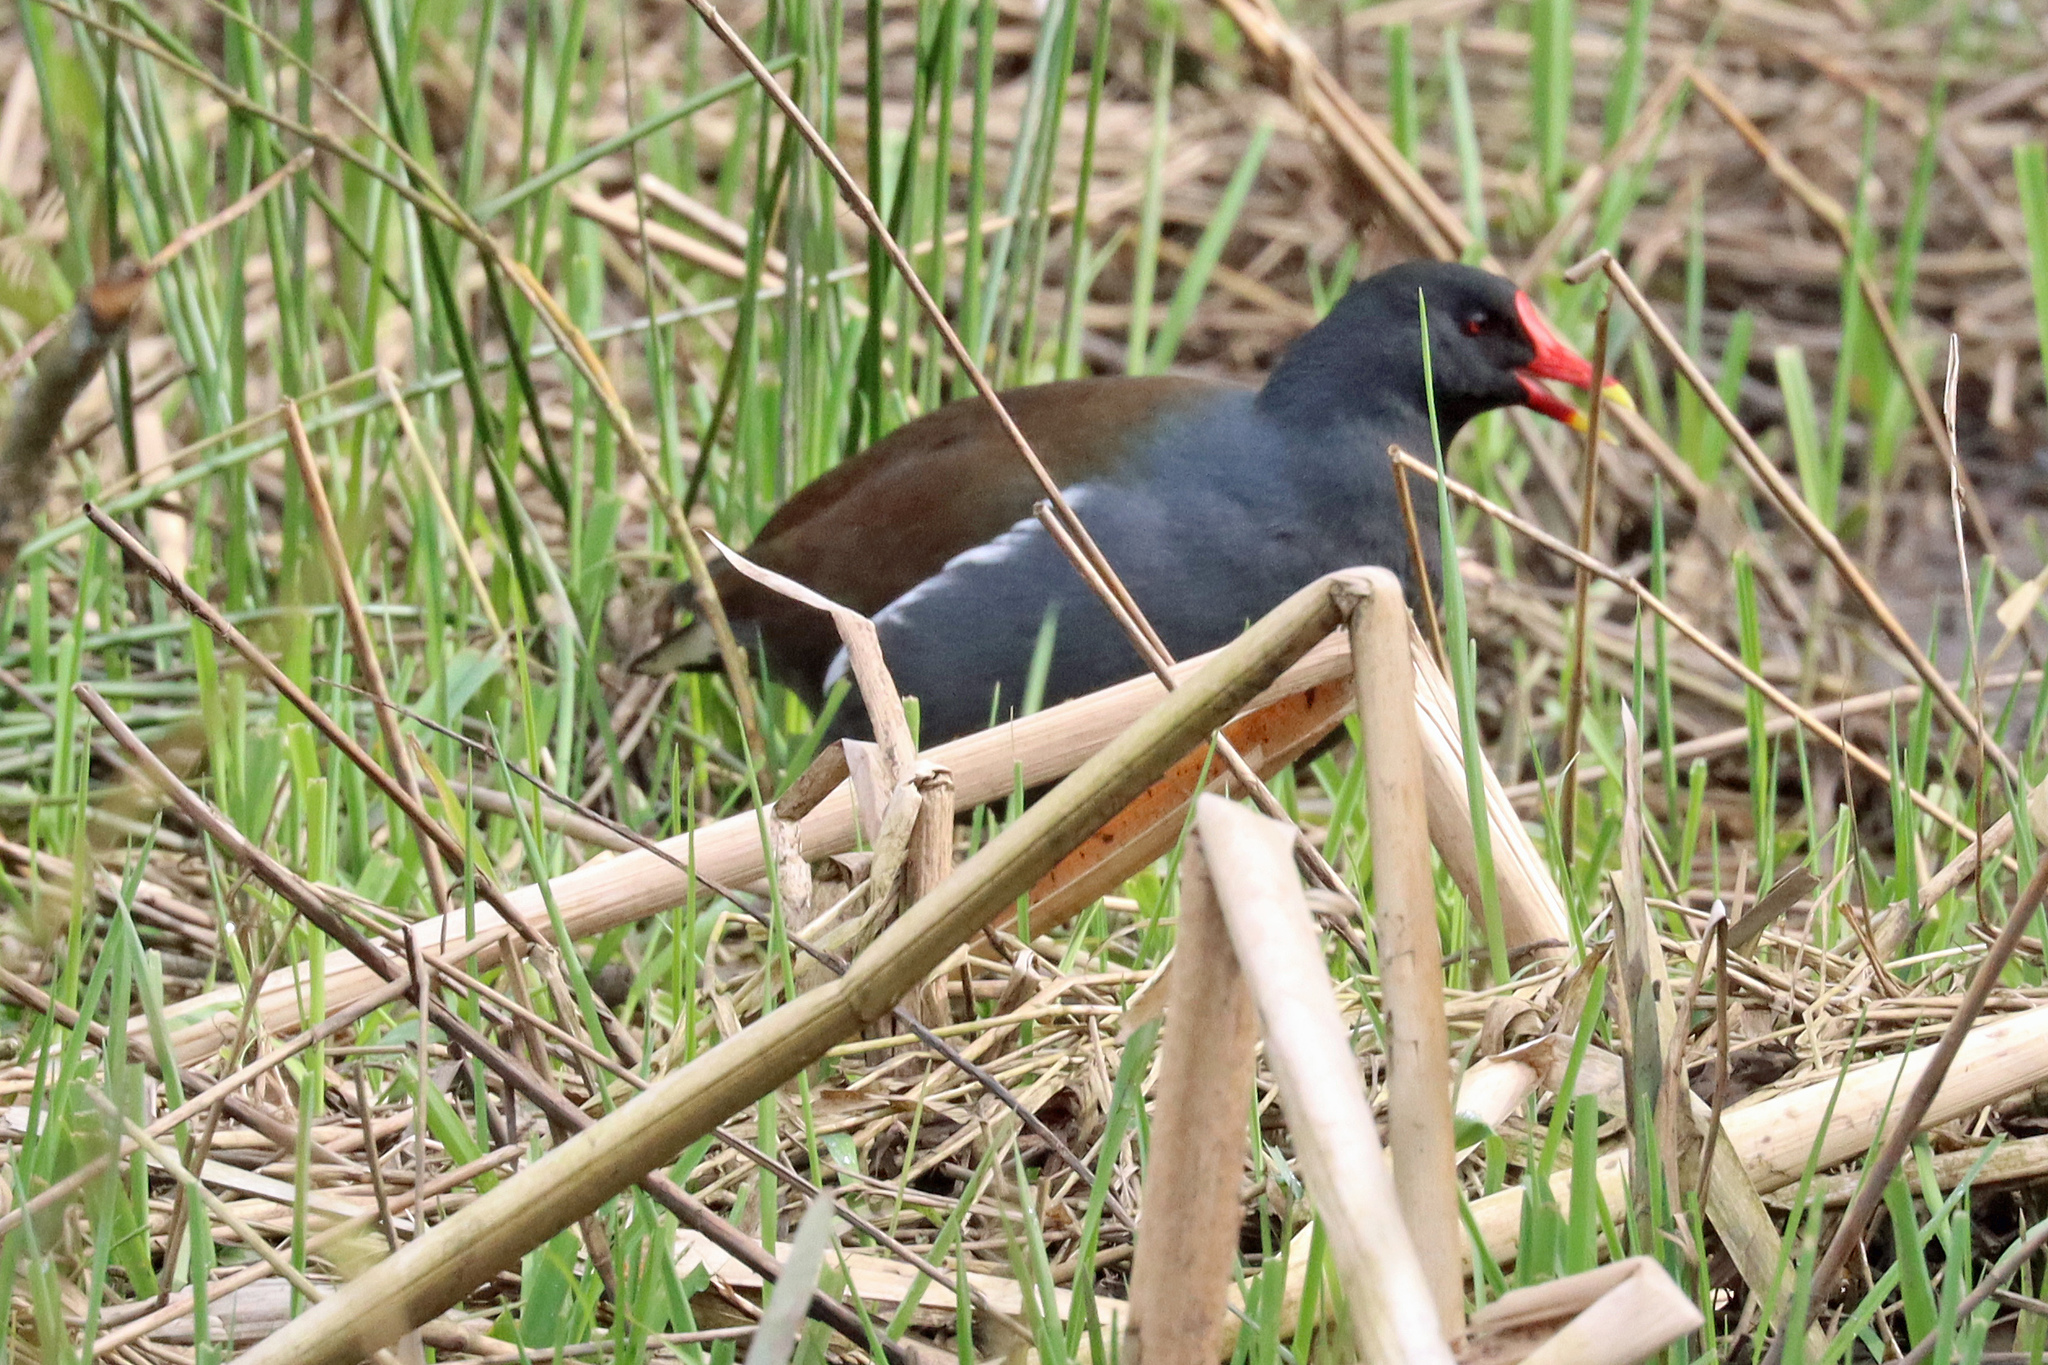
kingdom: Animalia
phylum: Chordata
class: Aves
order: Gruiformes
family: Rallidae
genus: Gallinula
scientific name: Gallinula chloropus
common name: Common moorhen
